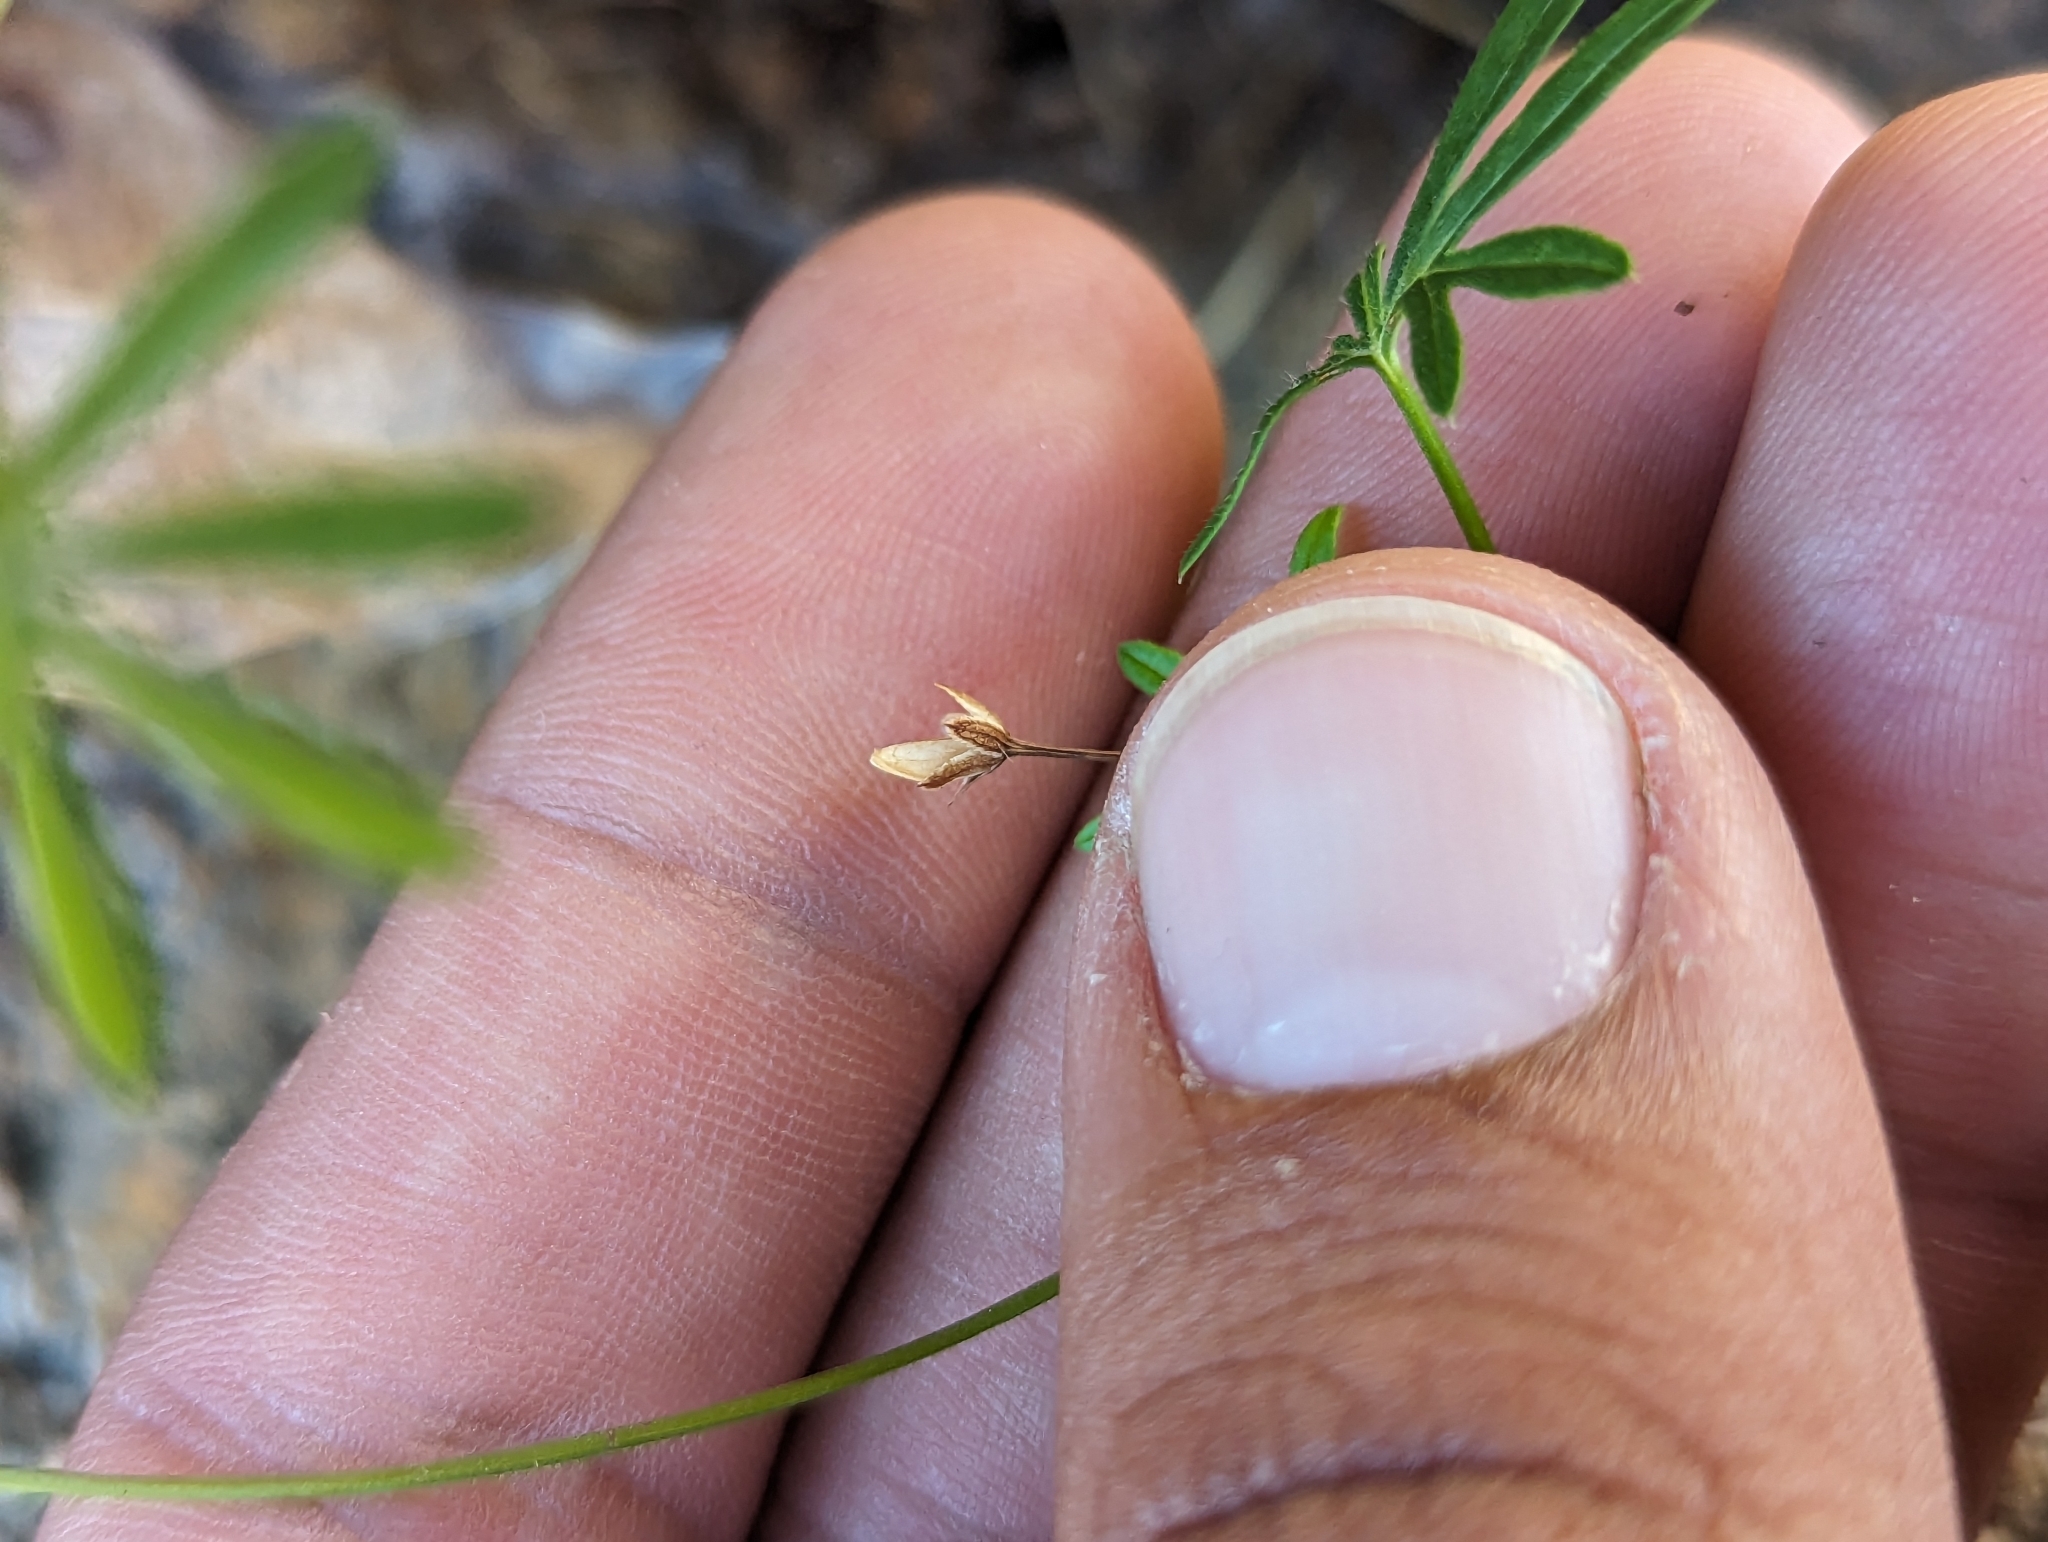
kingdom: Plantae
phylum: Tracheophyta
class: Magnoliopsida
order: Solanales
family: Convolvulaceae
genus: Ipomoea
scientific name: Ipomoea costellata
